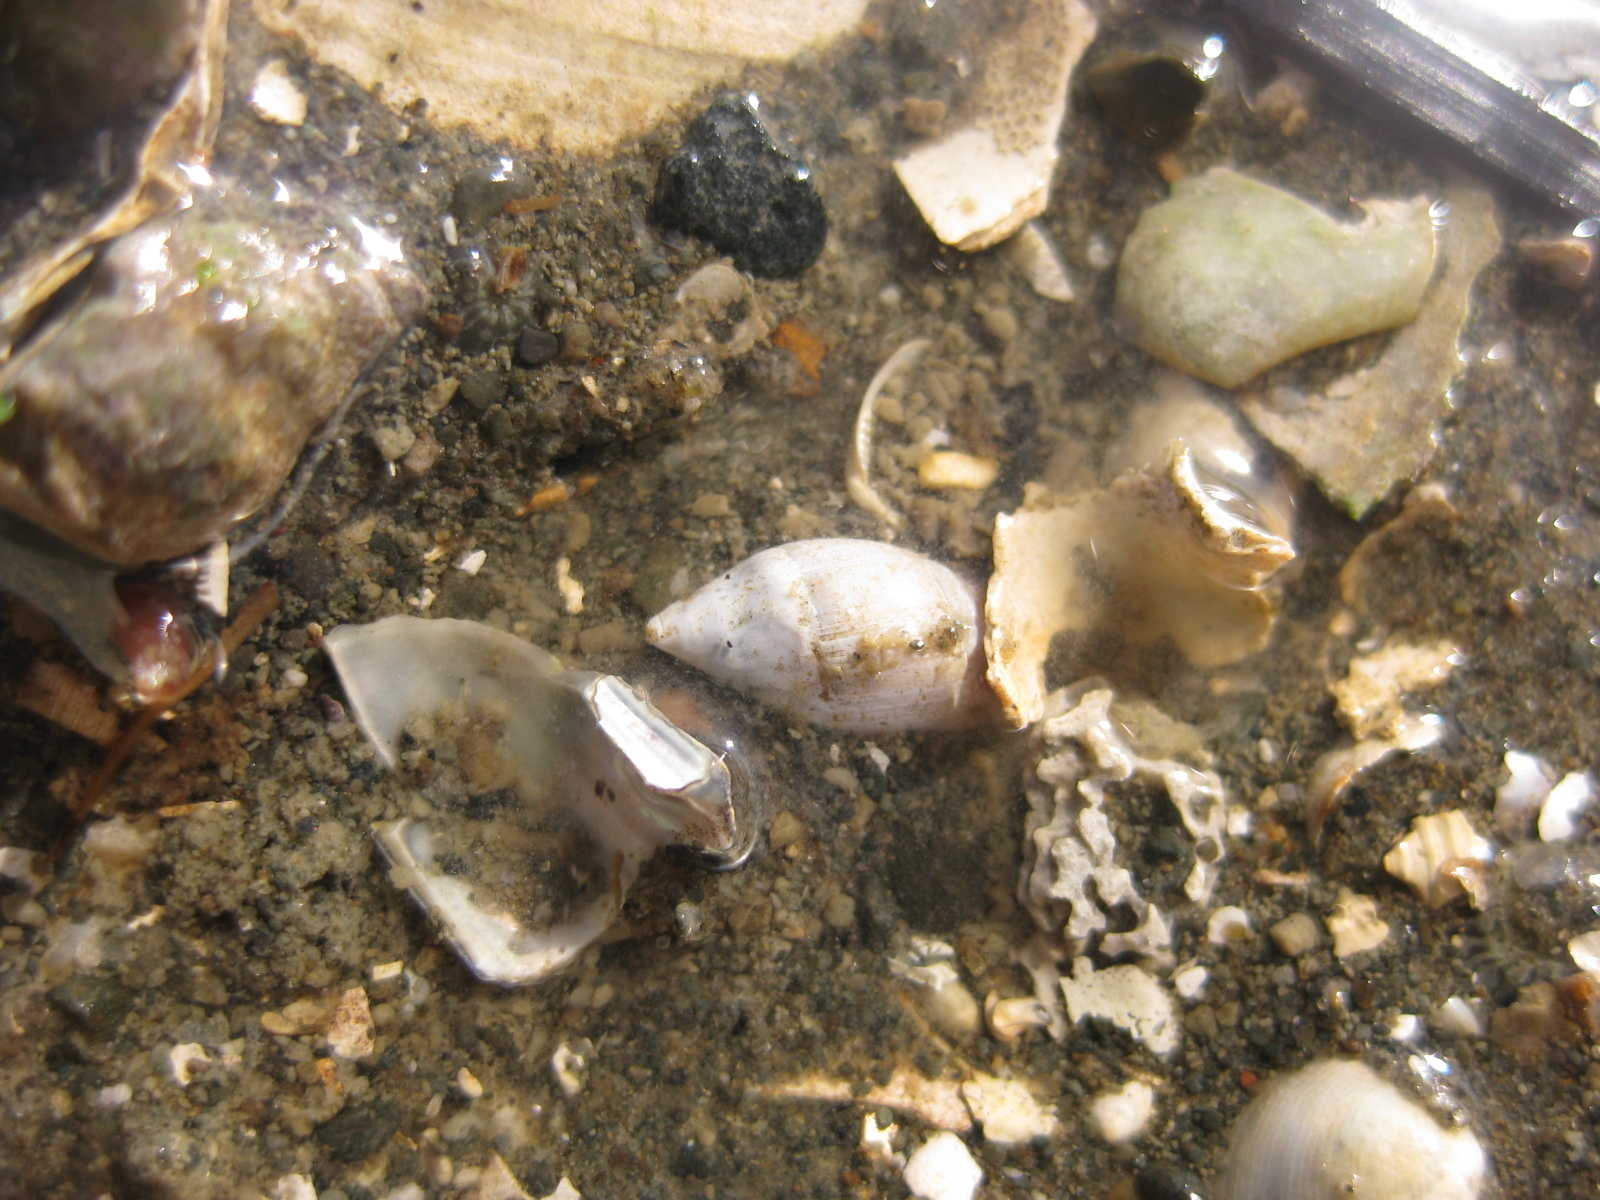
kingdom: Animalia
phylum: Mollusca
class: Gastropoda
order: Neogastropoda
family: Ancillariidae
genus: Amalda
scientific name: Amalda australis
